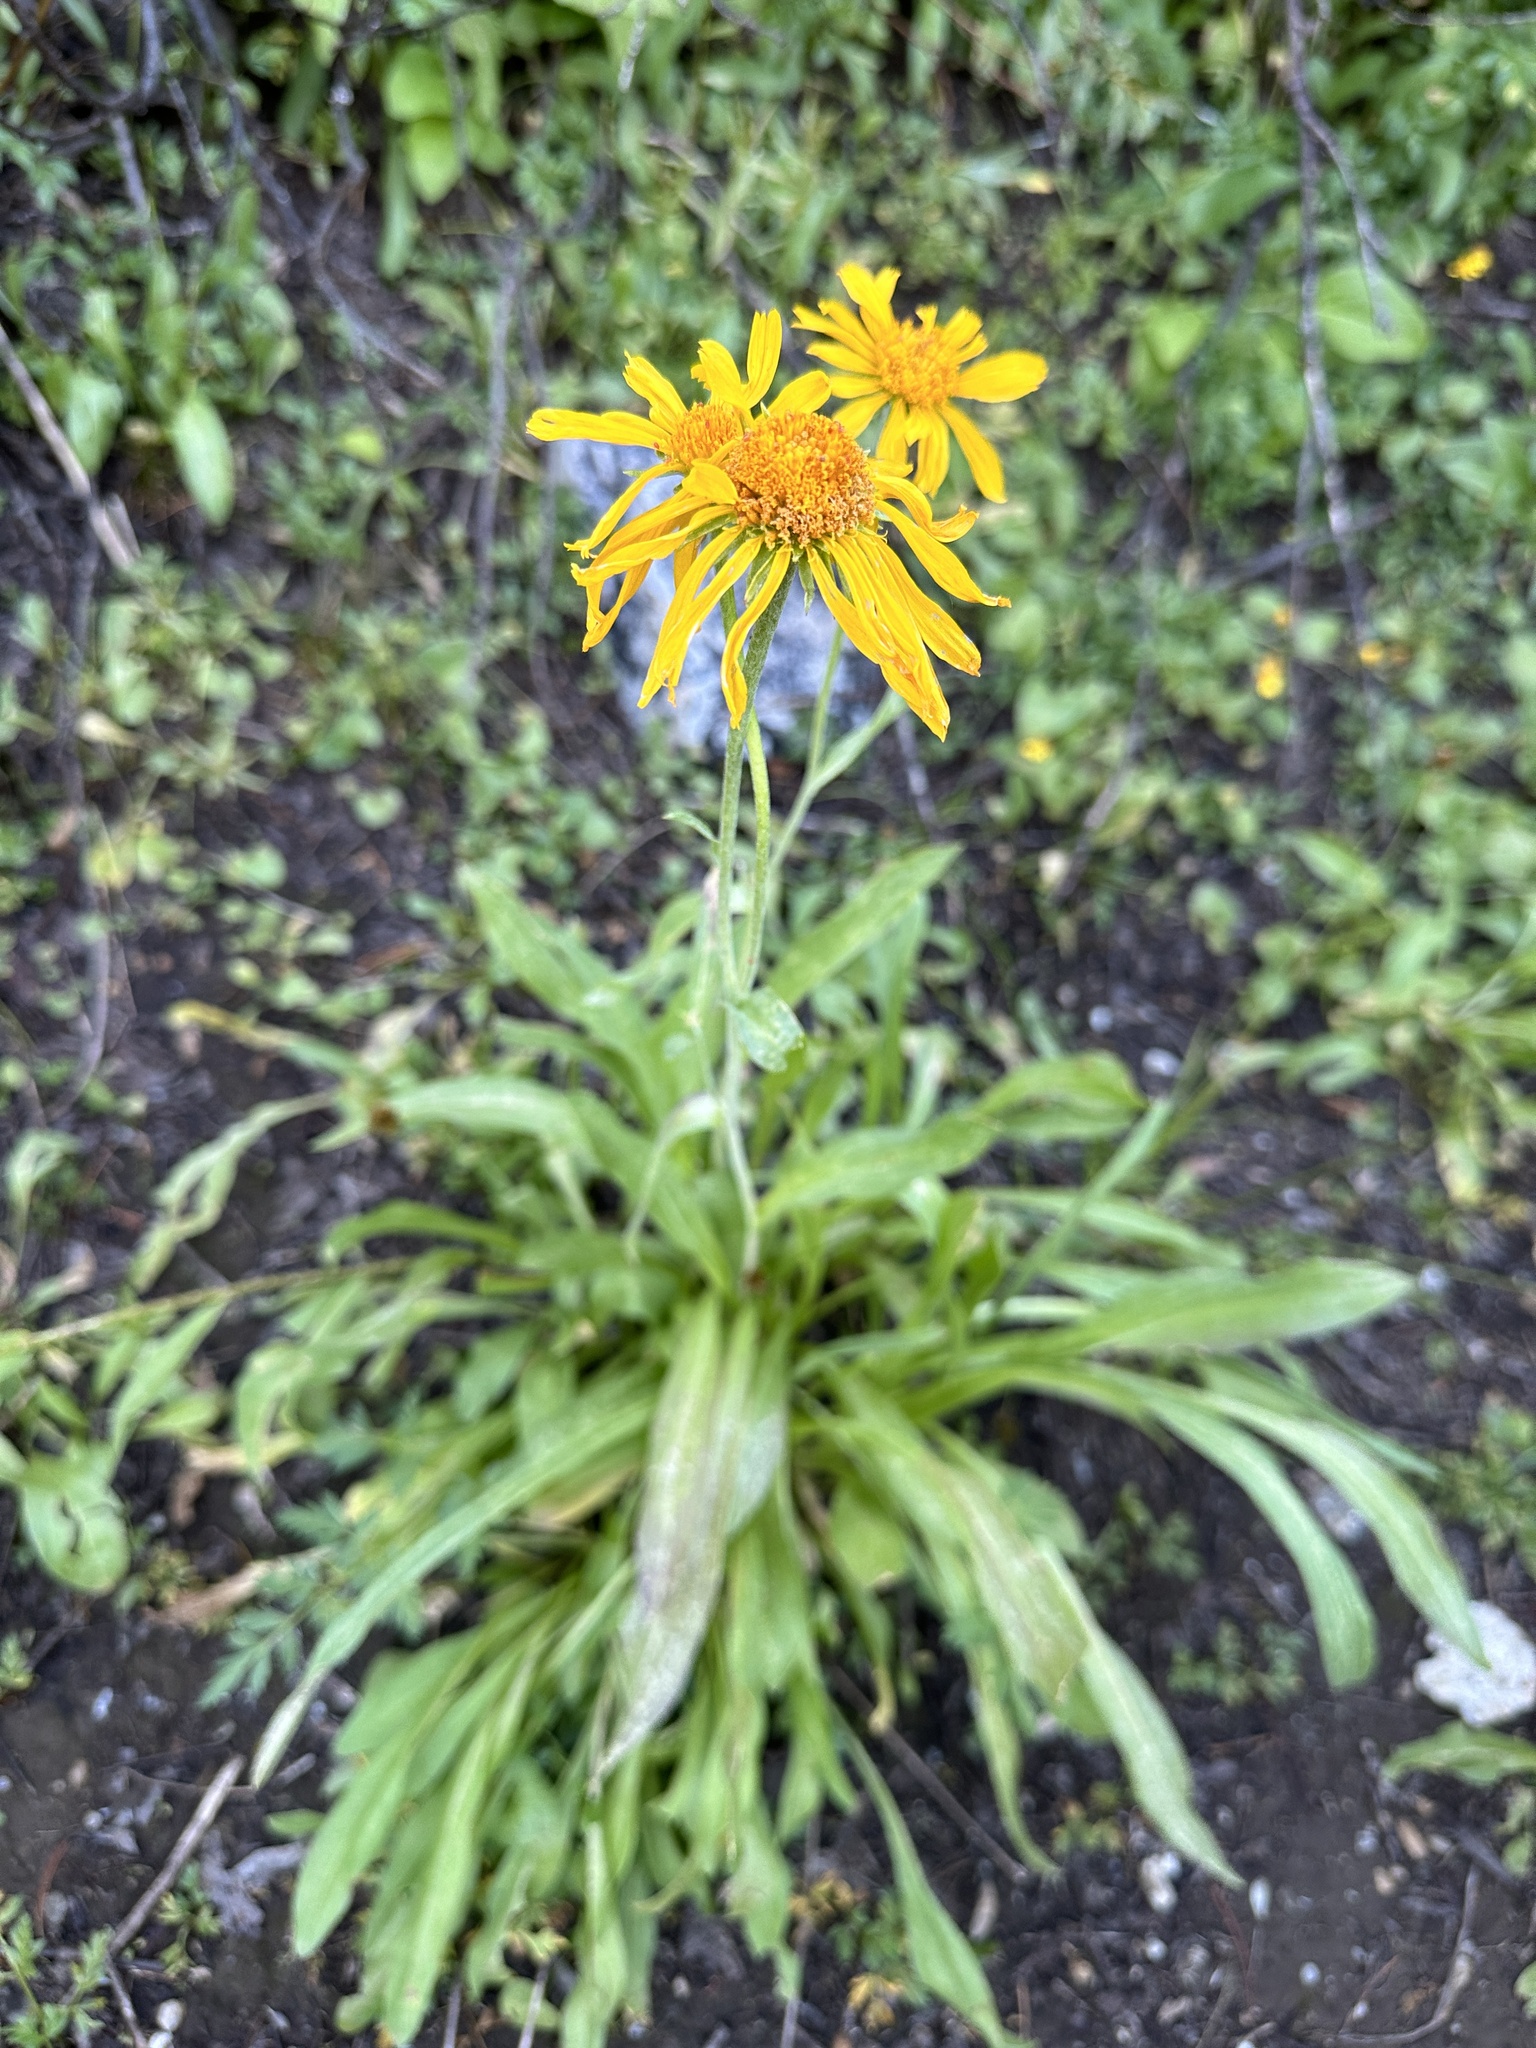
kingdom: Plantae
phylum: Tracheophyta
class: Magnoliopsida
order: Asterales
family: Asteraceae
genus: Hymenoxys
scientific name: Hymenoxys hoopesii
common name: Orange-sneezeweed
